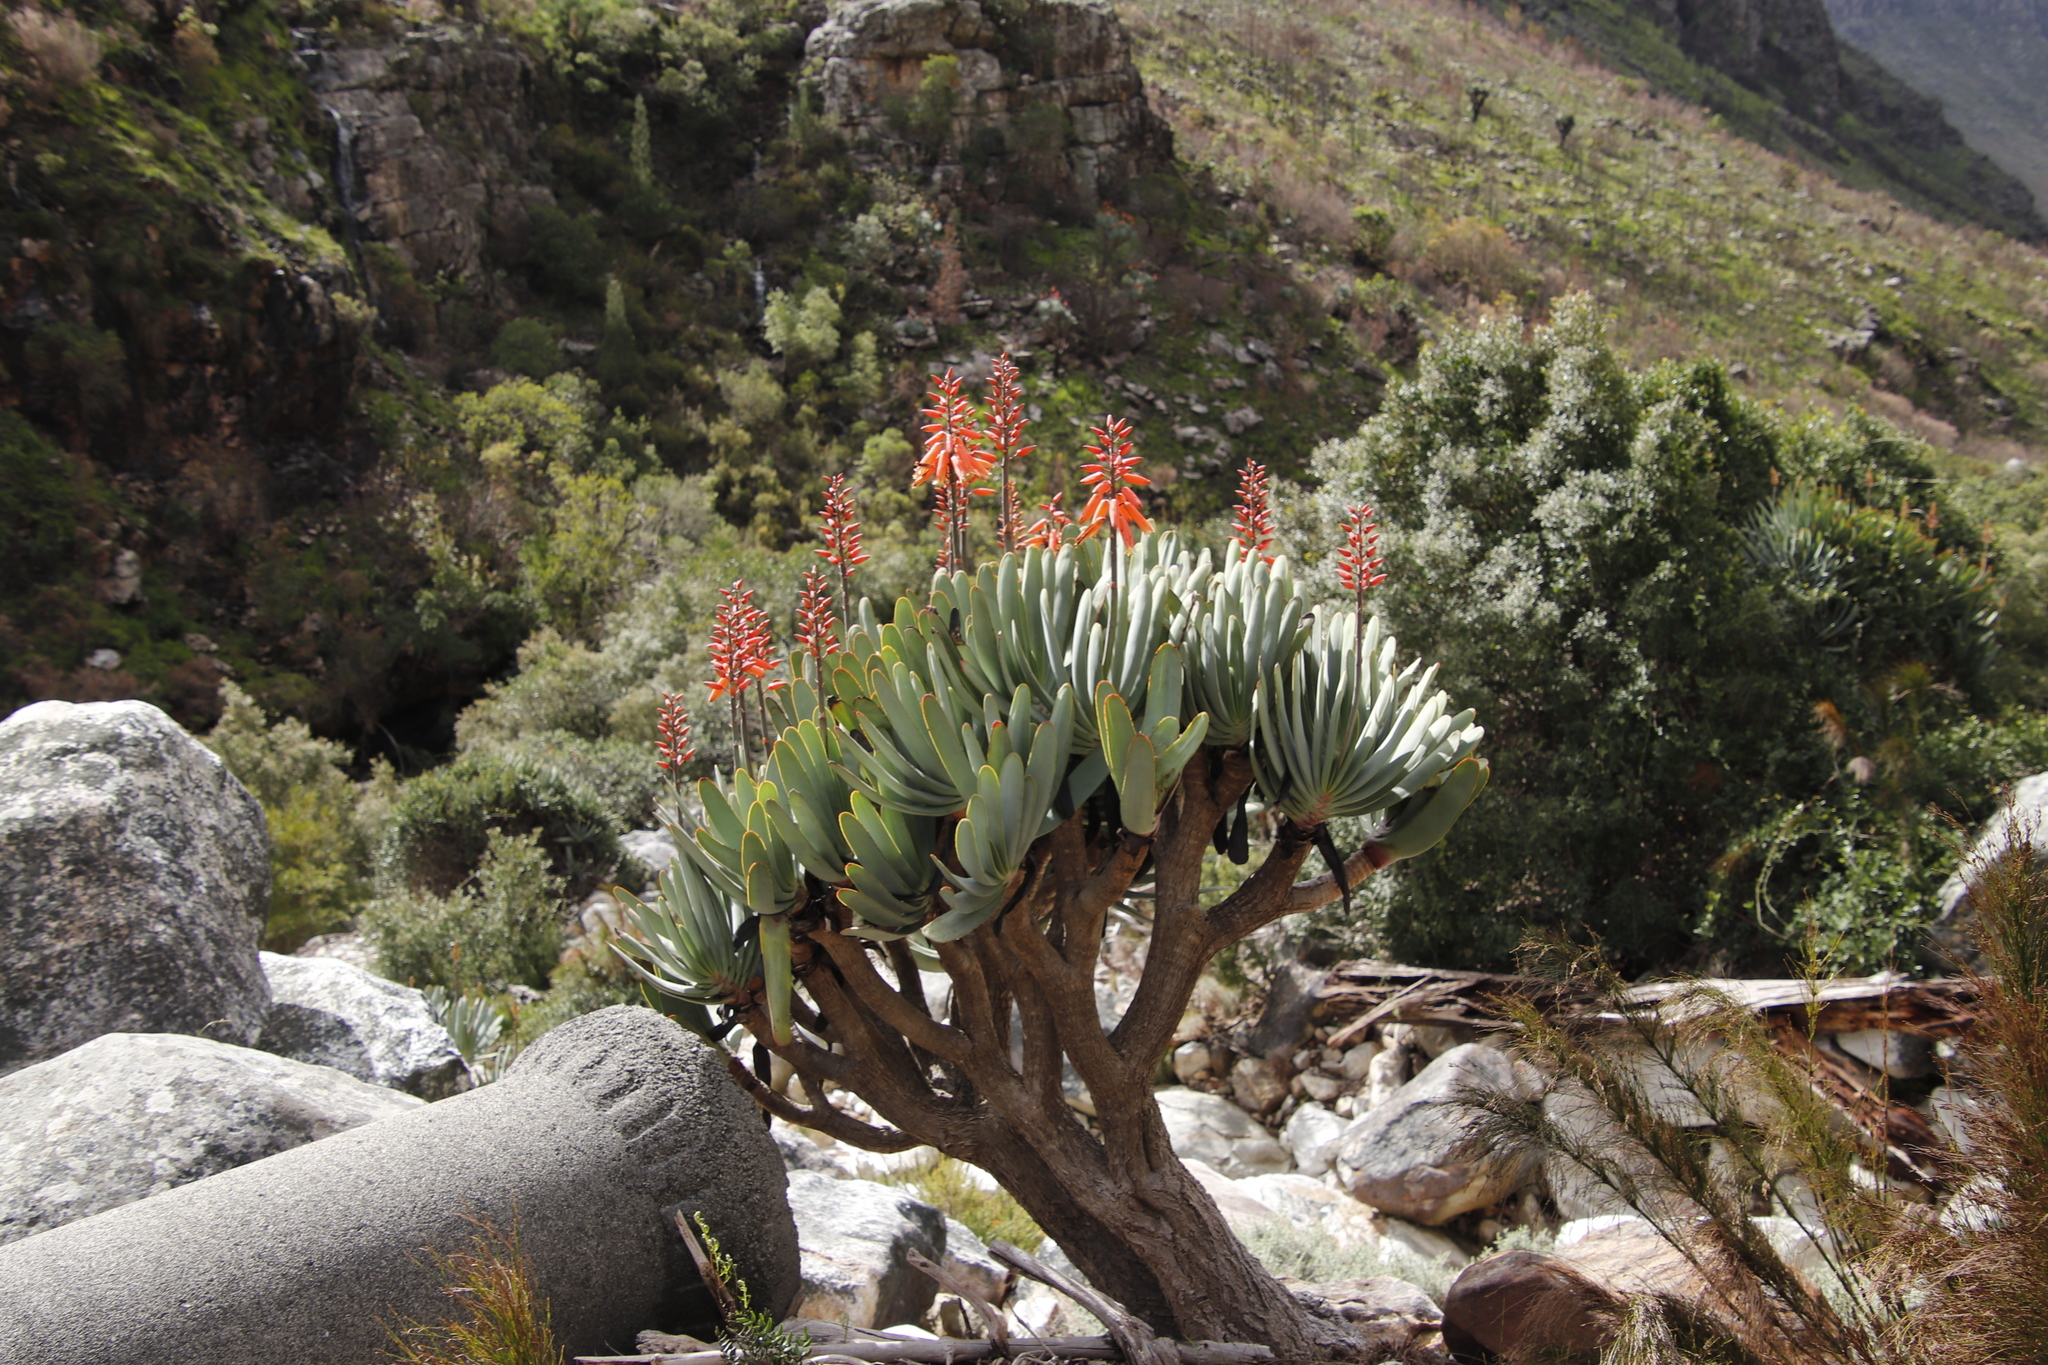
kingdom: Plantae
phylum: Tracheophyta
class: Liliopsida
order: Asparagales
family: Asphodelaceae
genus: Kumara
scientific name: Kumara plicatilis
